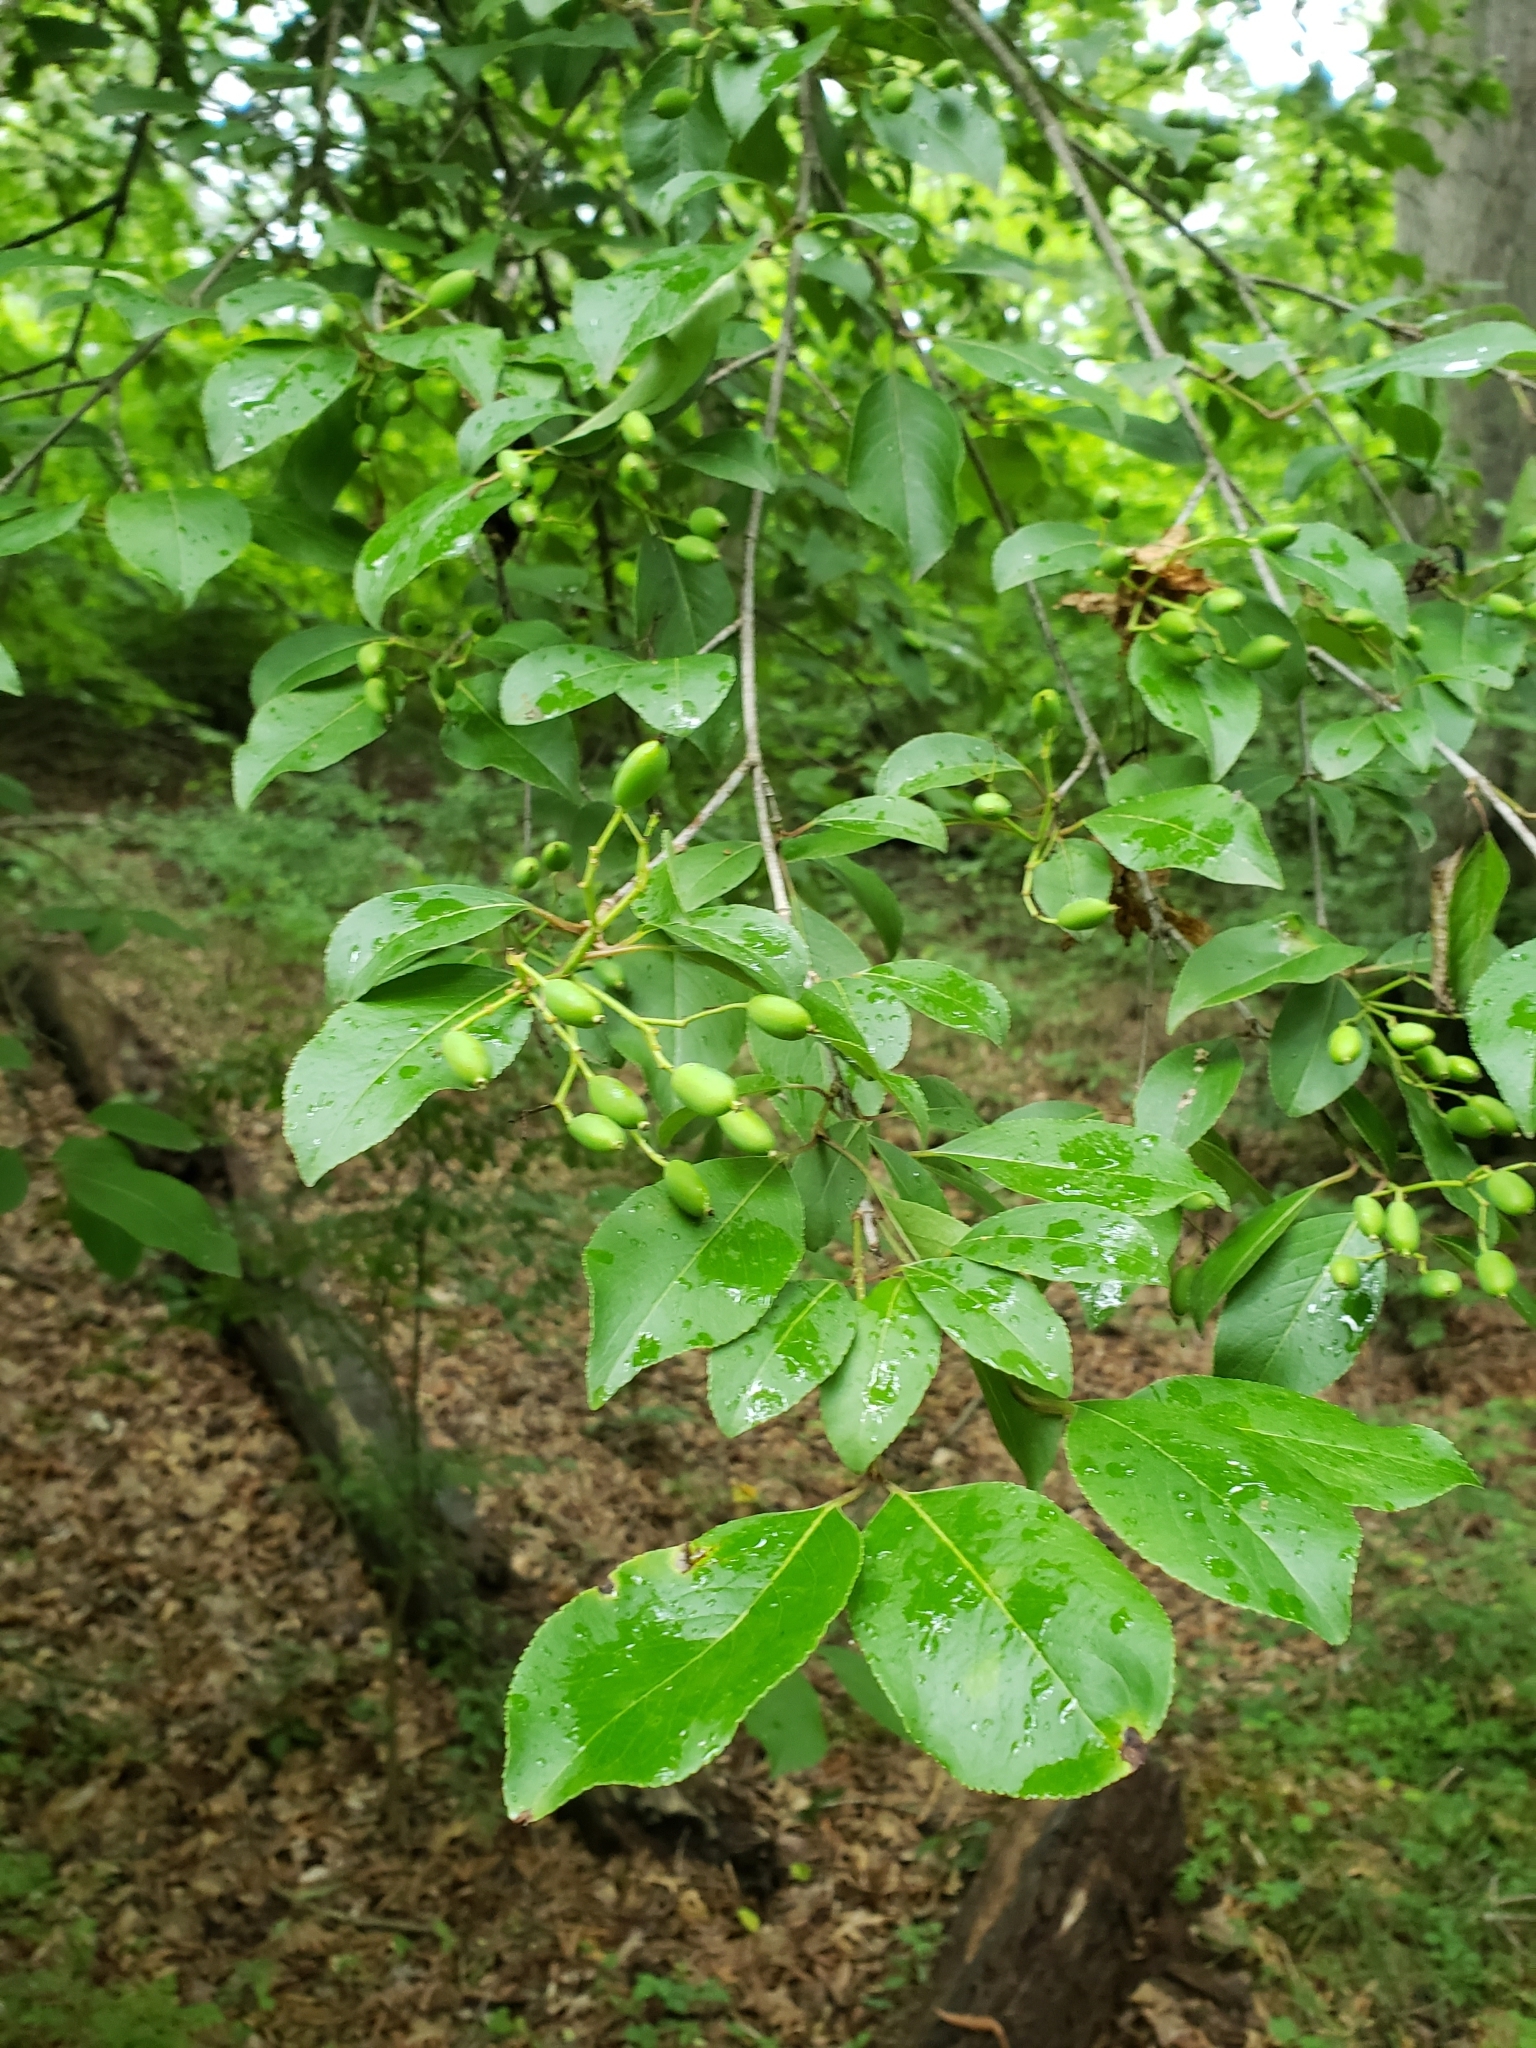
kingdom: Plantae
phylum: Tracheophyta
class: Magnoliopsida
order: Lamiales
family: Oleaceae
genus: Chionanthus
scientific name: Chionanthus virginicus
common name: American fringetree
